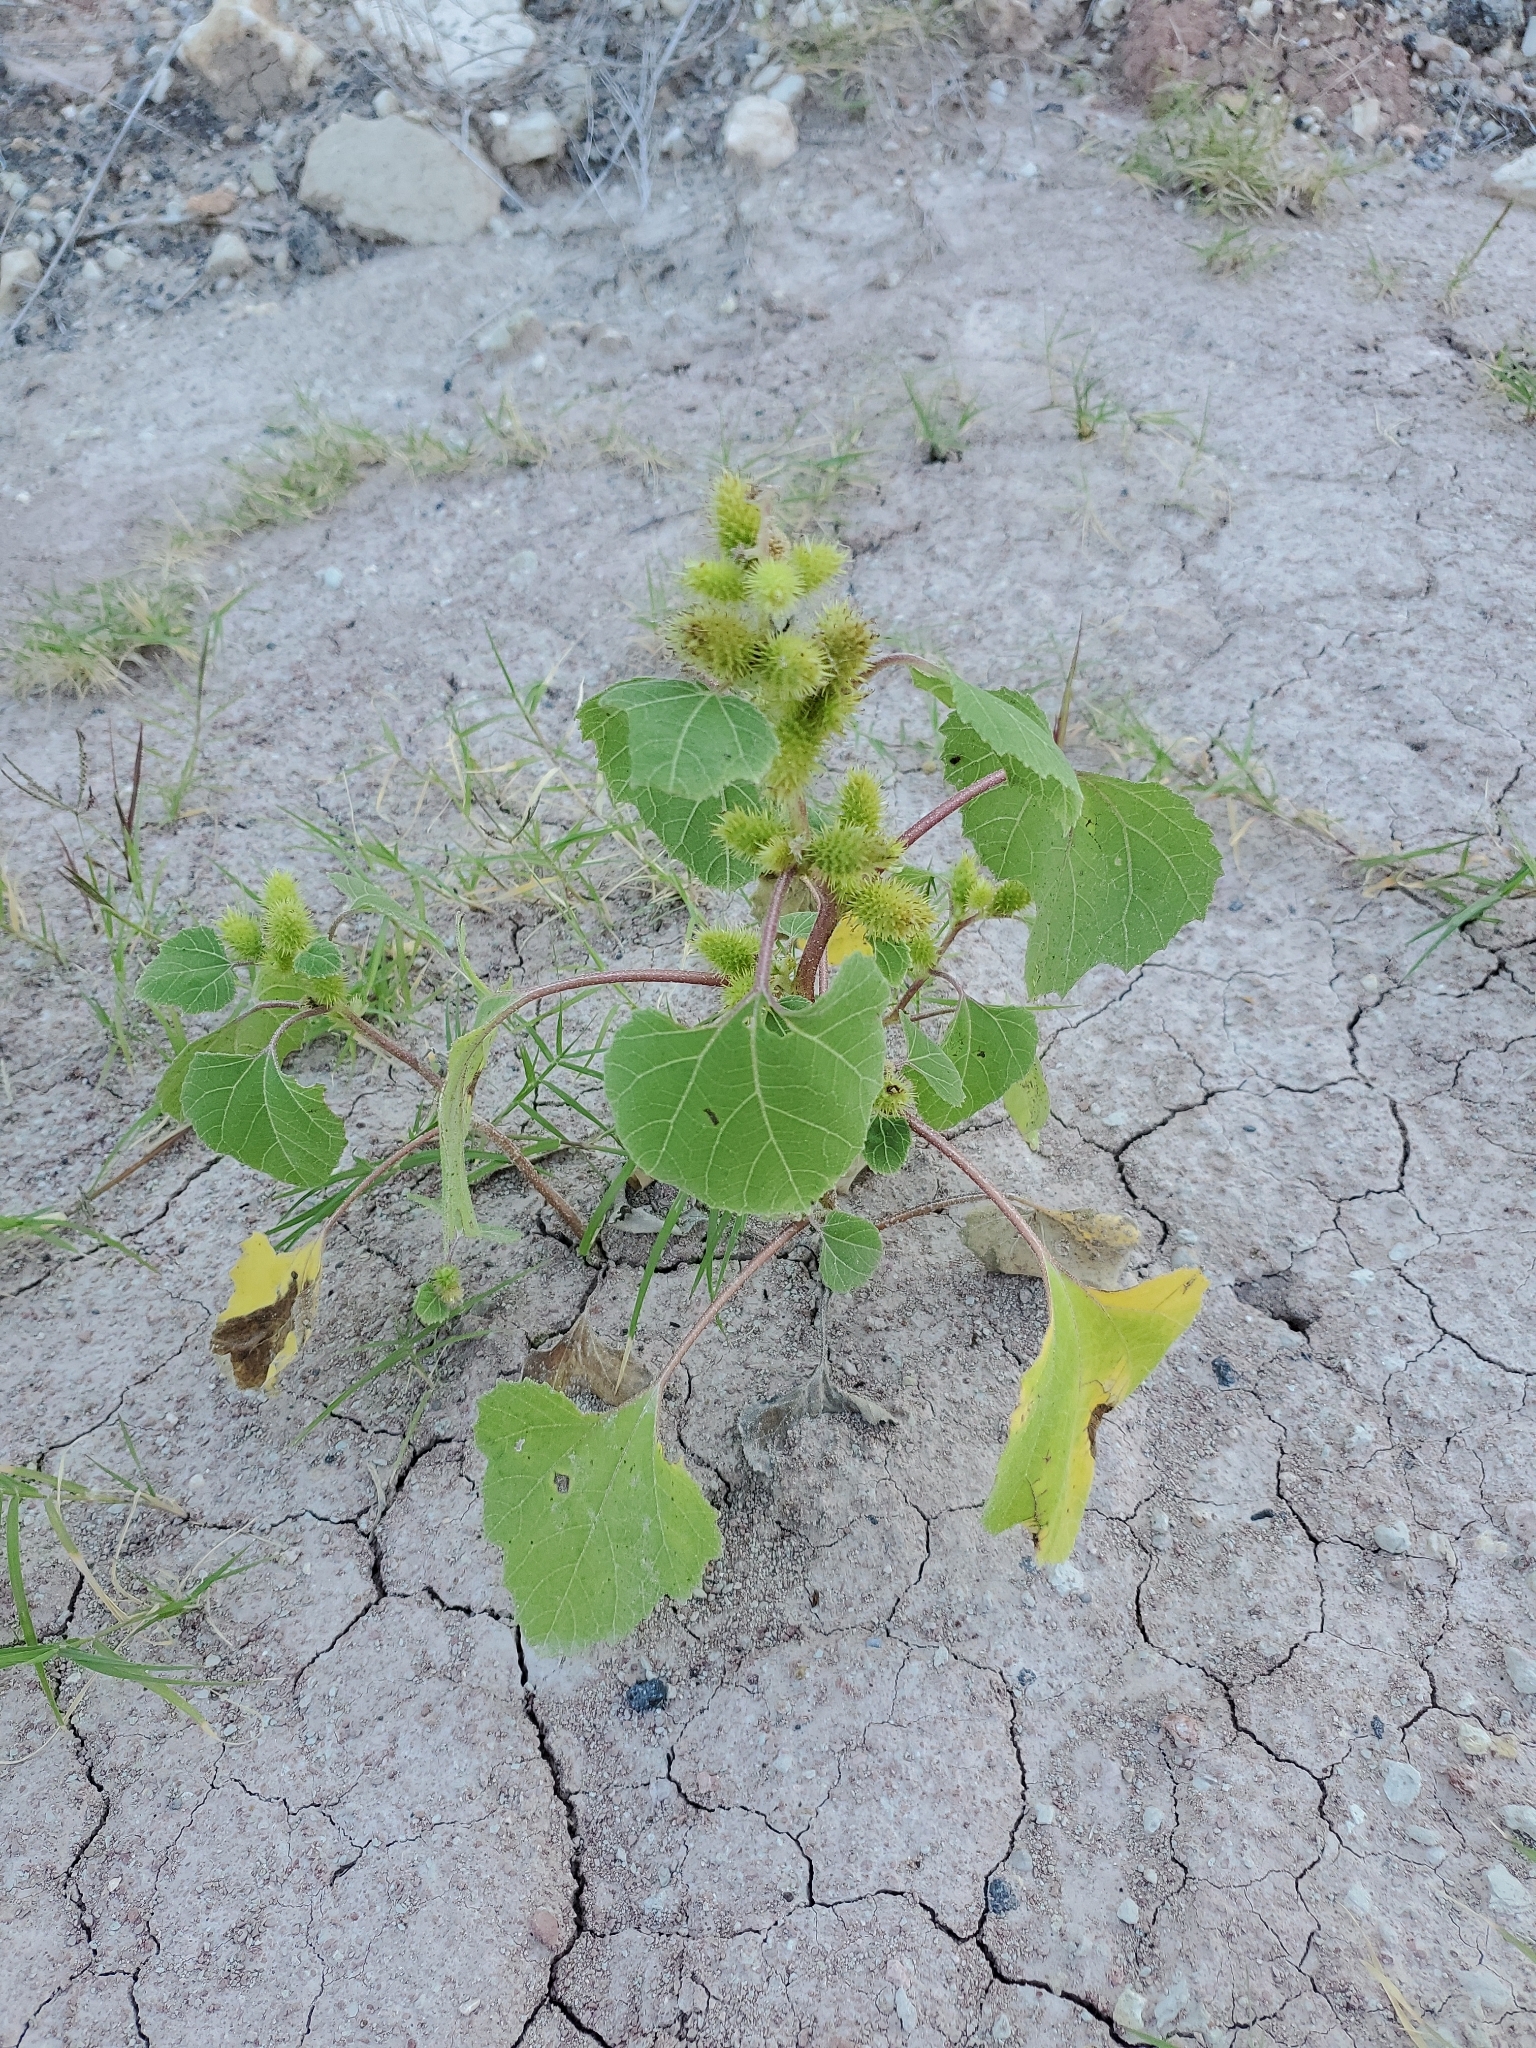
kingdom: Plantae
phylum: Tracheophyta
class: Magnoliopsida
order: Asterales
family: Asteraceae
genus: Xanthium
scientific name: Xanthium strumarium
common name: Rough cocklebur
